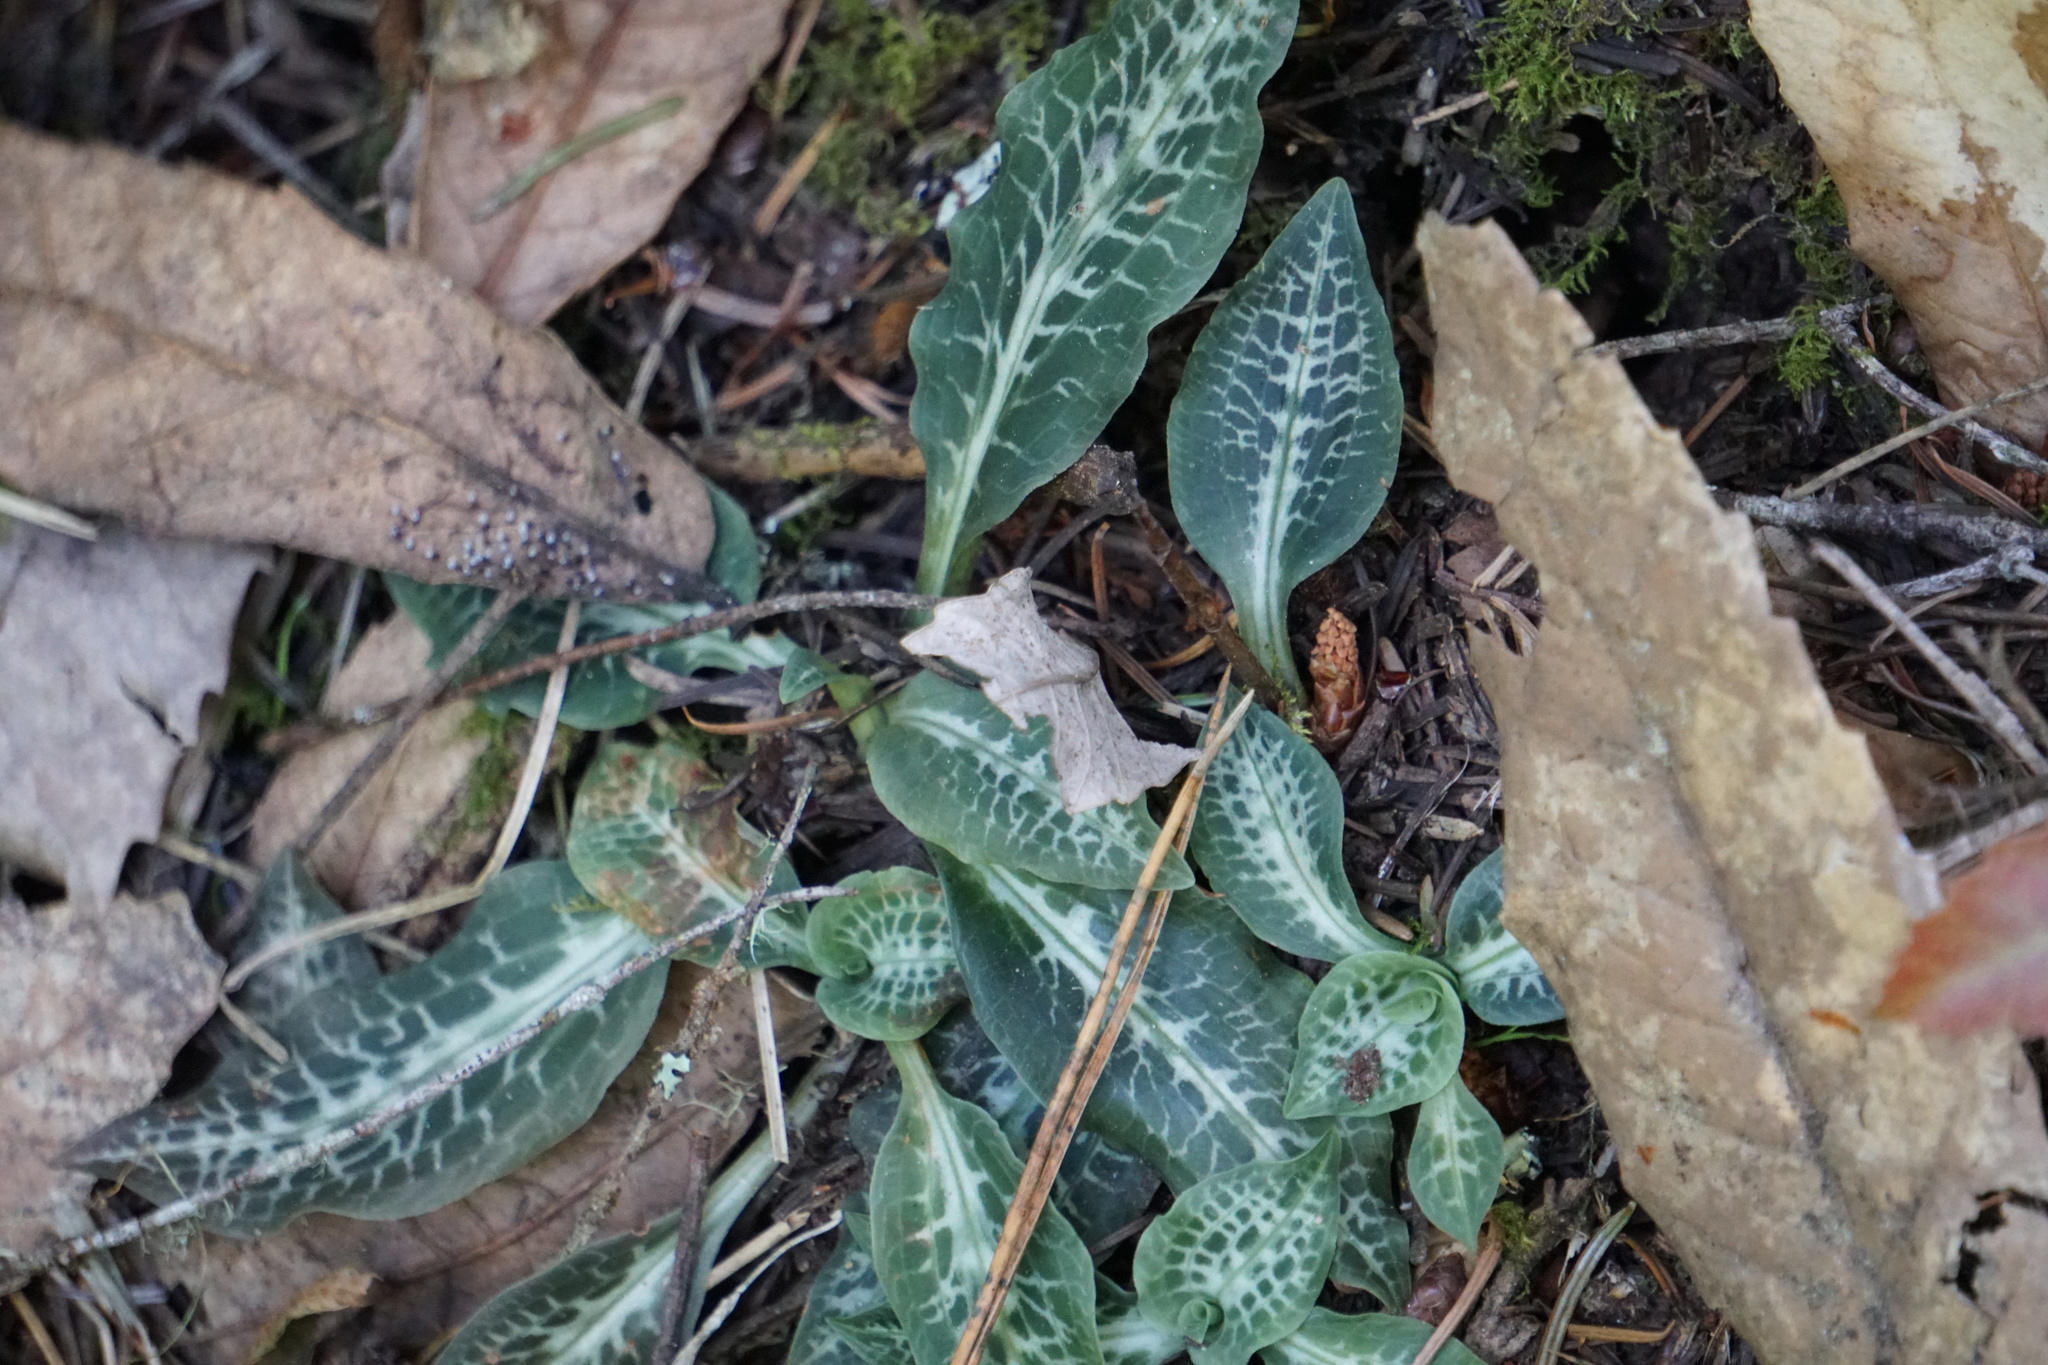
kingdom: Plantae
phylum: Tracheophyta
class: Liliopsida
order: Asparagales
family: Orchidaceae
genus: Goodyera
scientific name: Goodyera oblongifolia
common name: Giant rattlesnake-plantain
